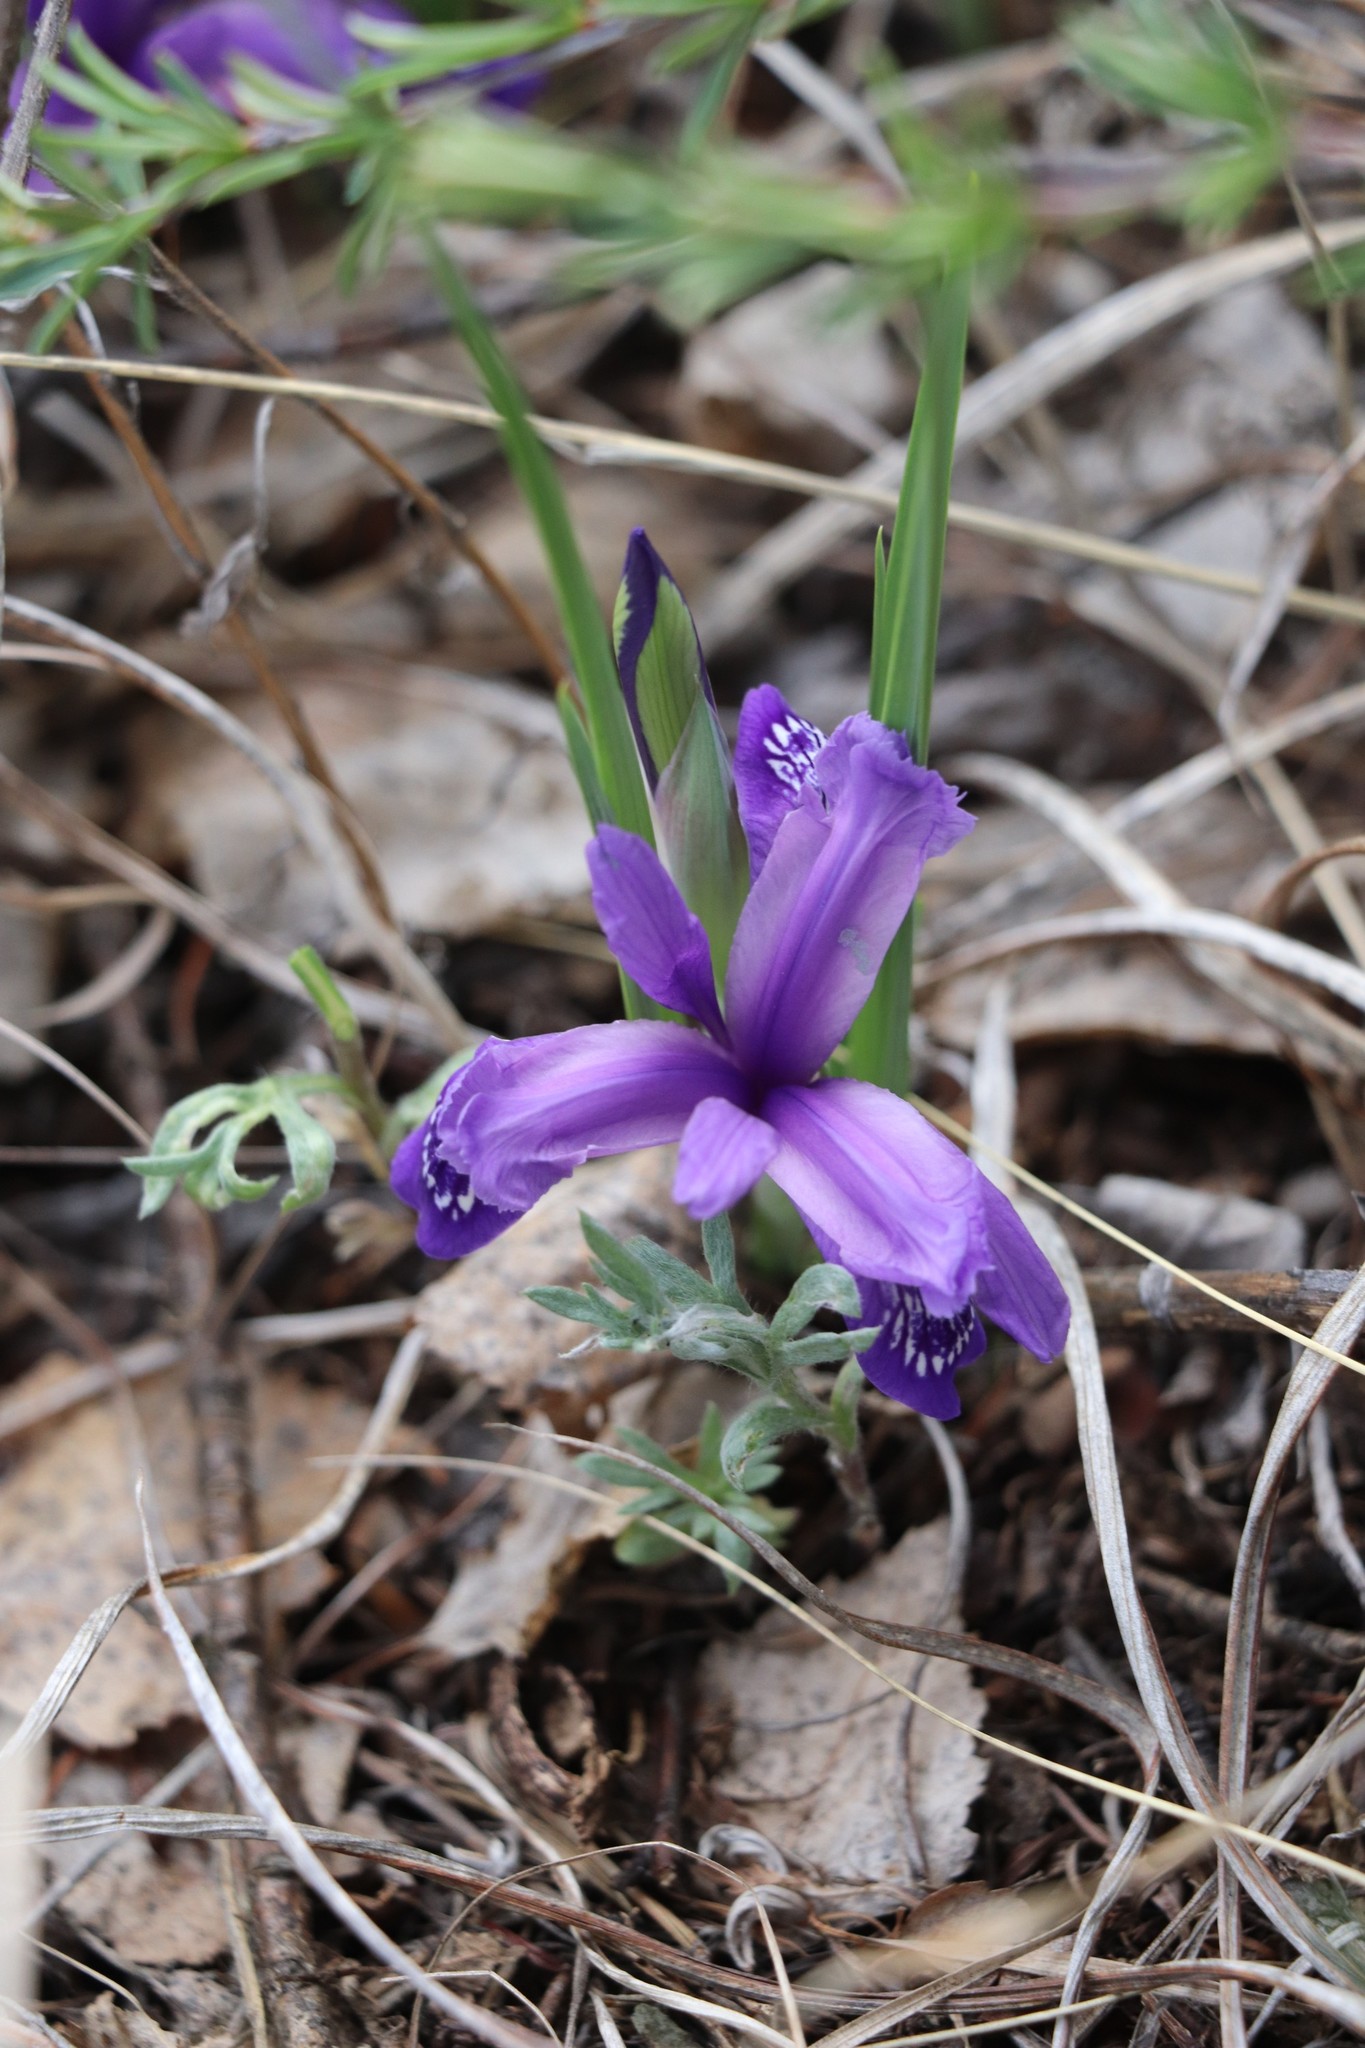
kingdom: Plantae
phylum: Tracheophyta
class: Liliopsida
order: Asparagales
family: Iridaceae
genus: Iris
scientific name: Iris ruthenica
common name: Purple-bract iris
